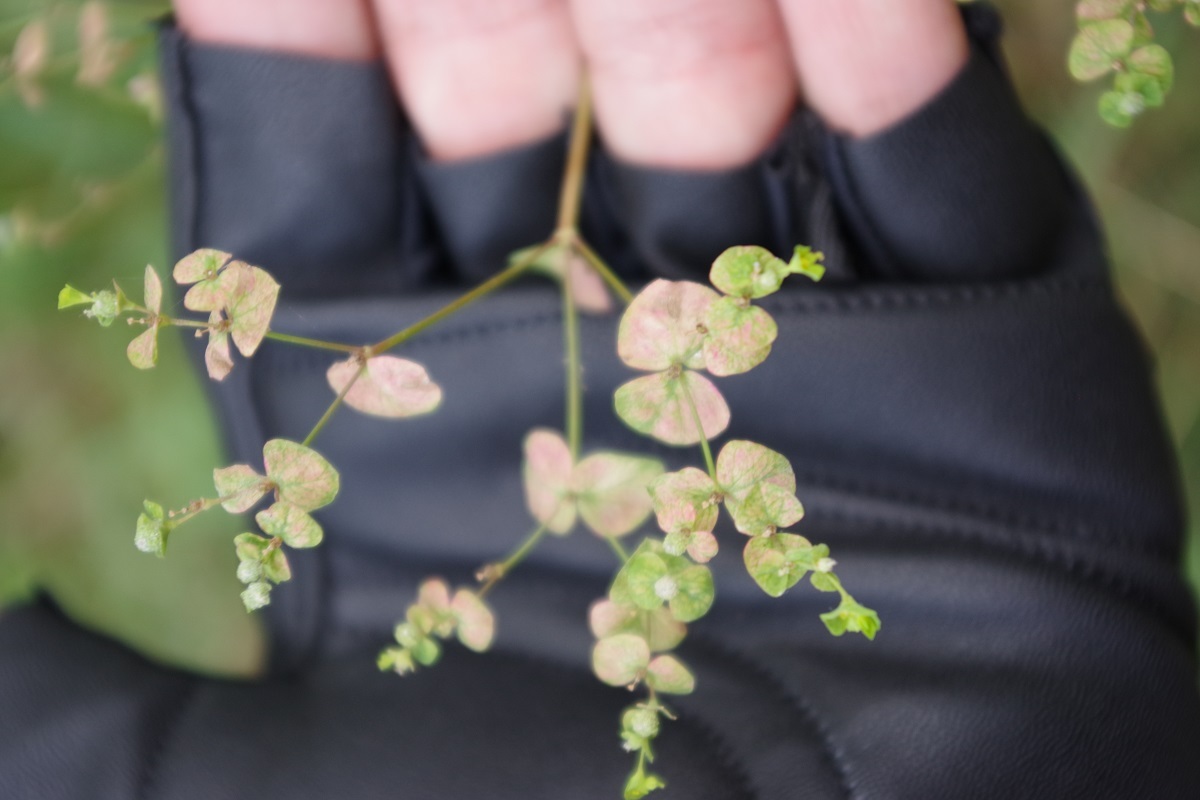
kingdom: Plantae
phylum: Tracheophyta
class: Magnoliopsida
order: Malpighiales
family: Euphorbiaceae
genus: Euphorbia
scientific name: Euphorbia stricta
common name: Upright spurge
